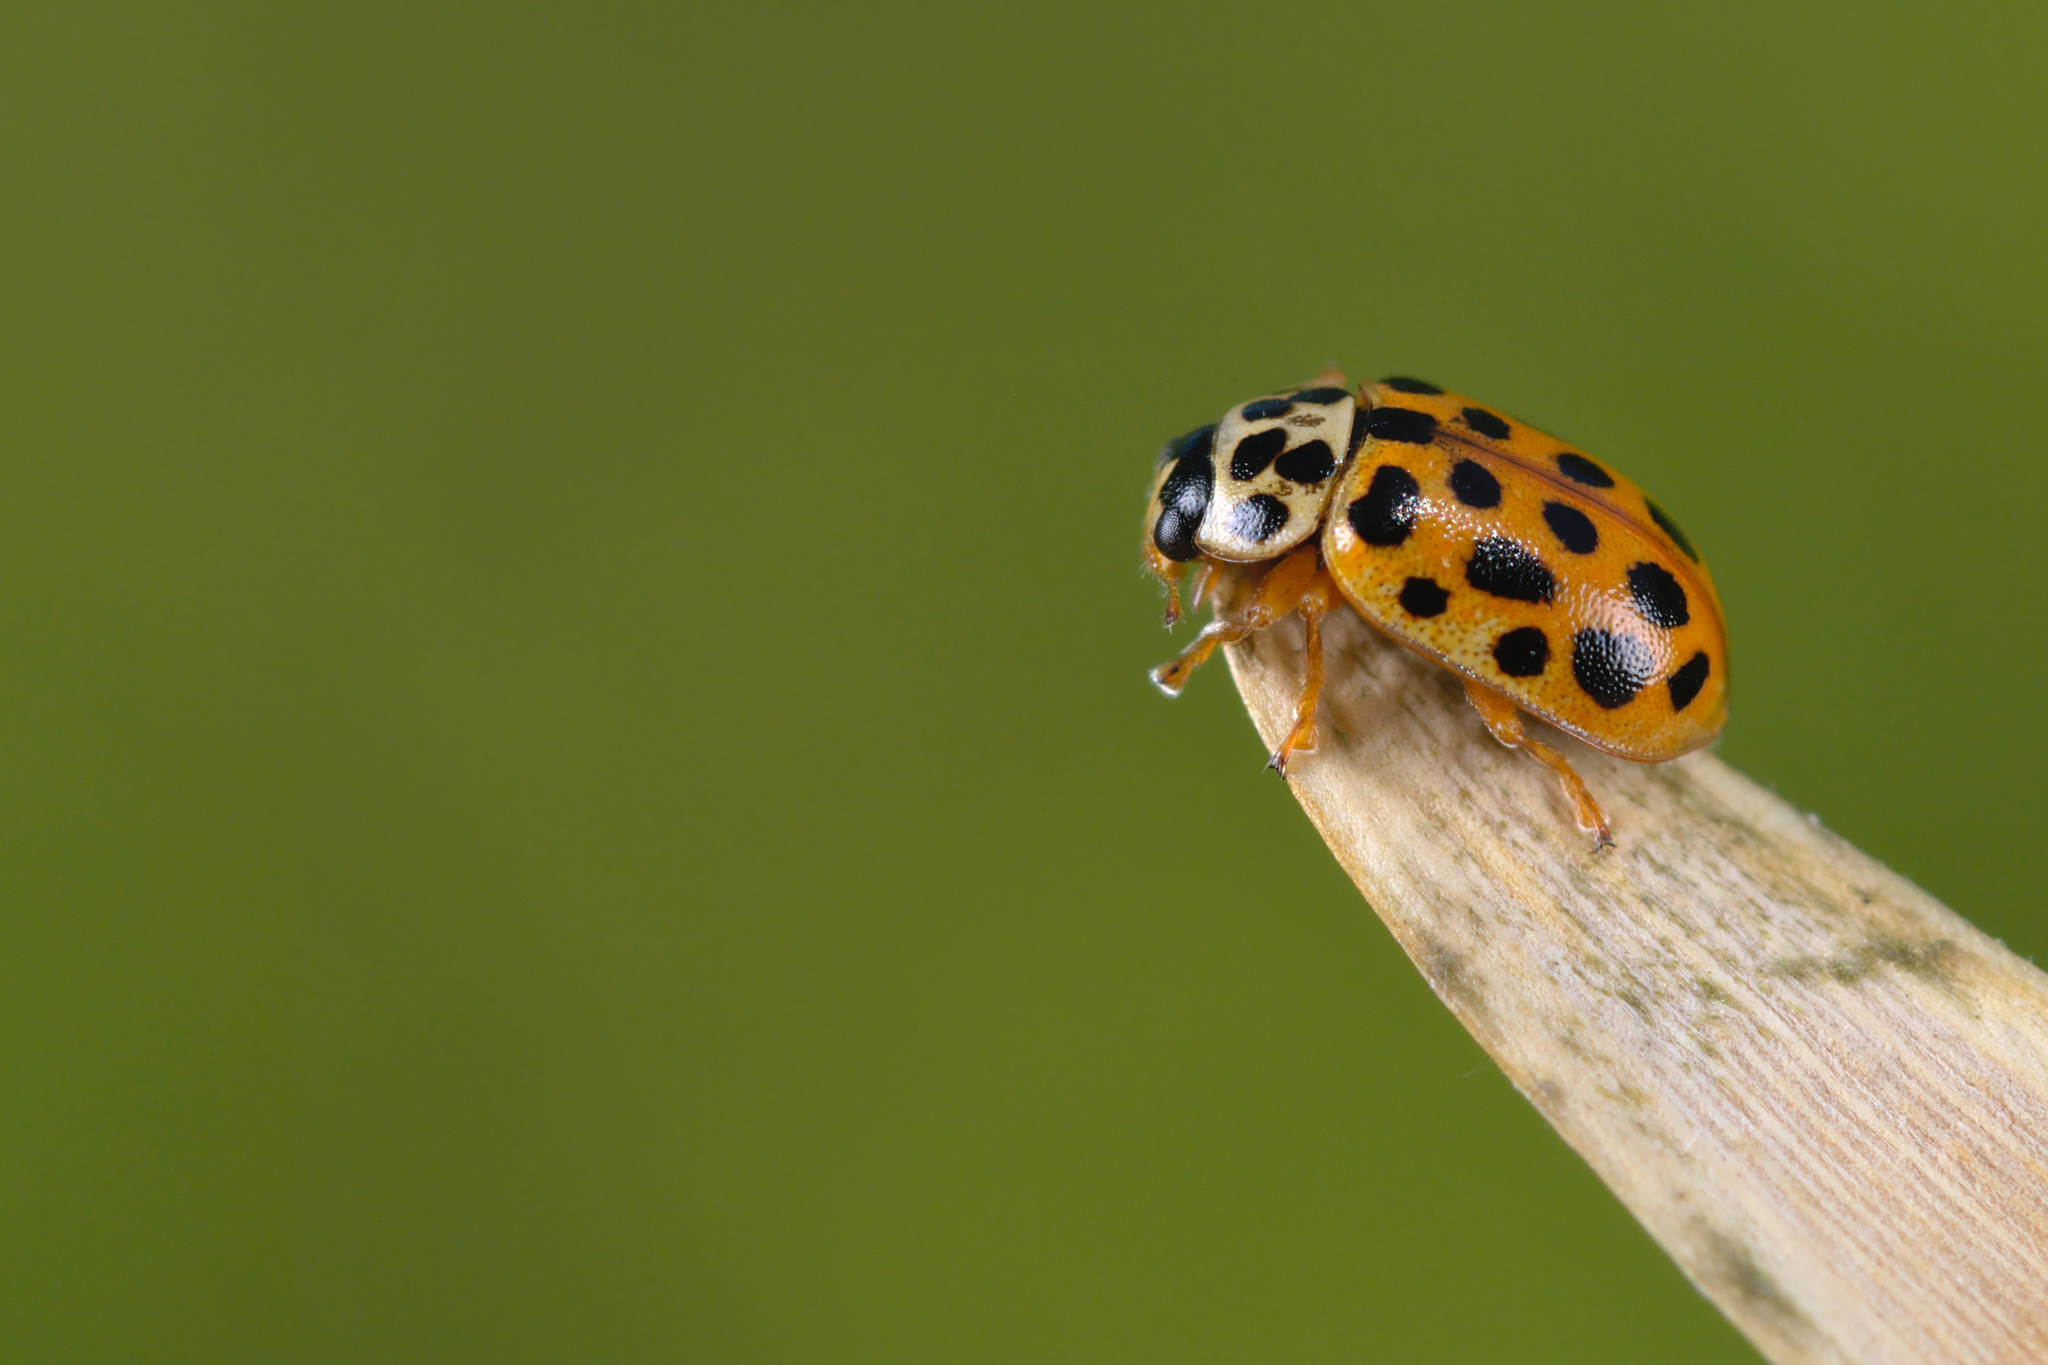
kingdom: Animalia
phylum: Arthropoda
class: Insecta
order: Coleoptera
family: Coccinellidae
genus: Anisosticta
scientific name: Anisosticta novemdecimpunctata
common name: Water ladybird
